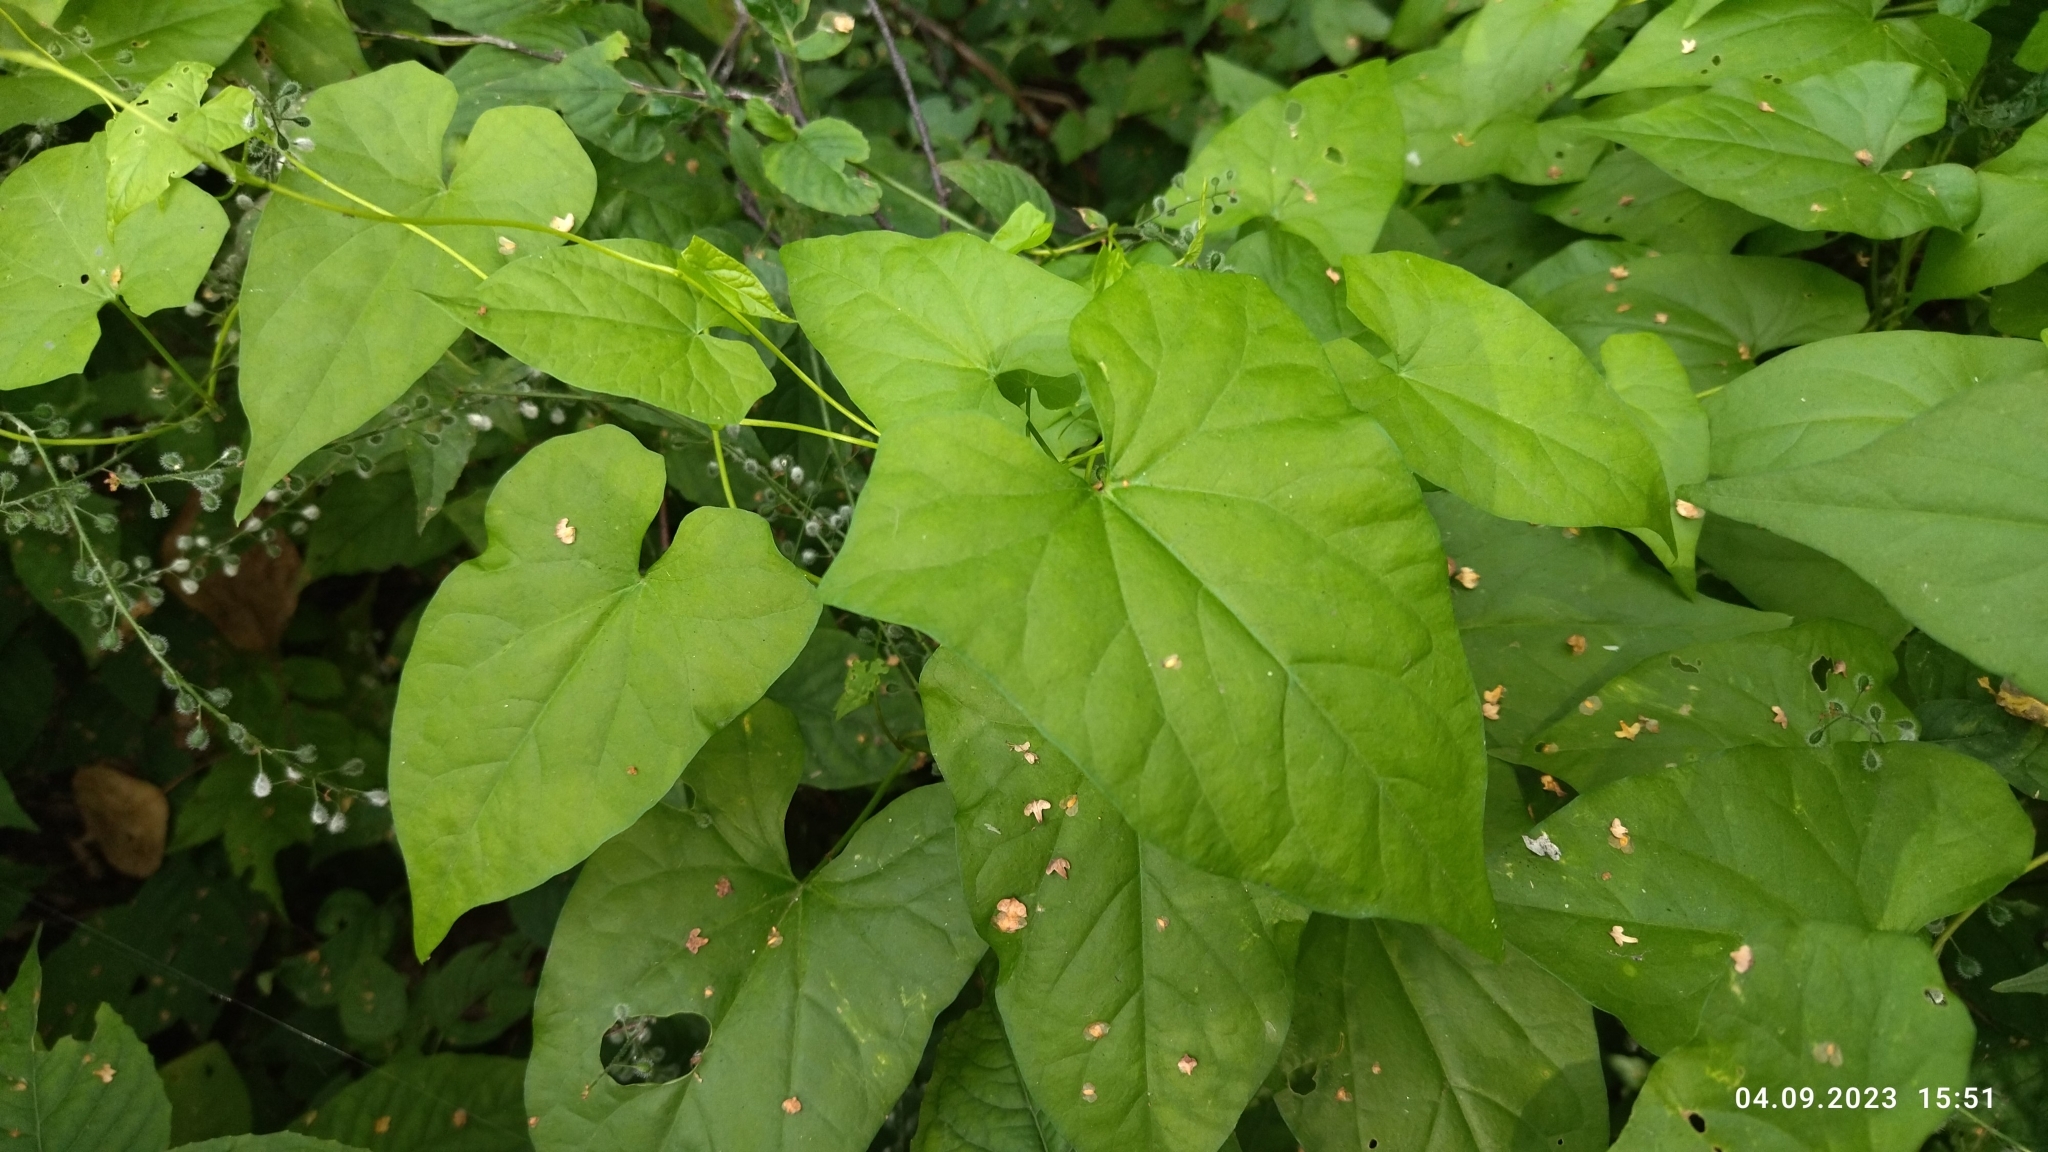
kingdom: Plantae
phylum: Tracheophyta
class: Magnoliopsida
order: Solanales
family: Convolvulaceae
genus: Calystegia
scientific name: Calystegia
